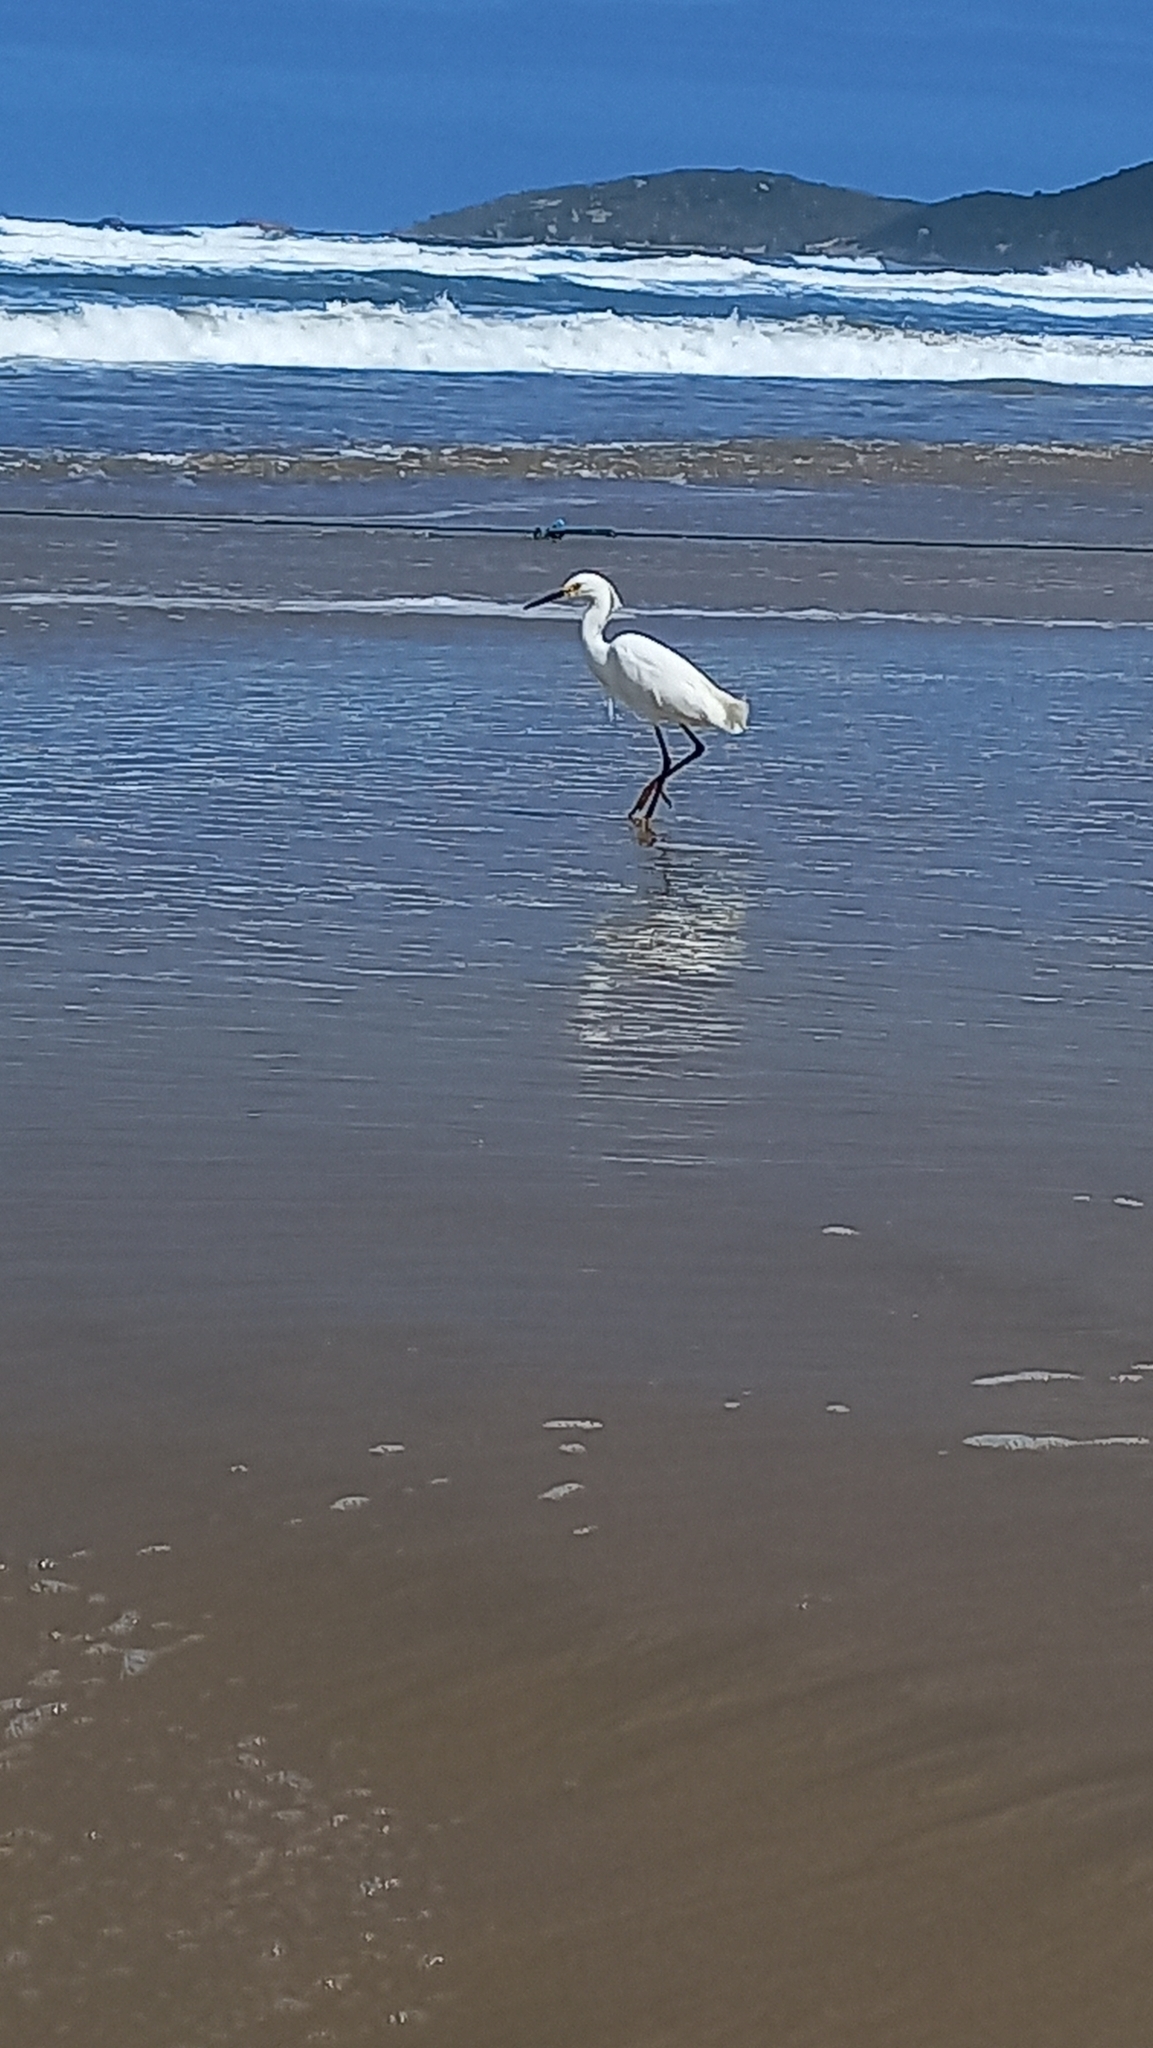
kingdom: Animalia
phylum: Chordata
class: Aves
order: Pelecaniformes
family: Ardeidae
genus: Egretta
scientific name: Egretta thula
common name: Snowy egret
